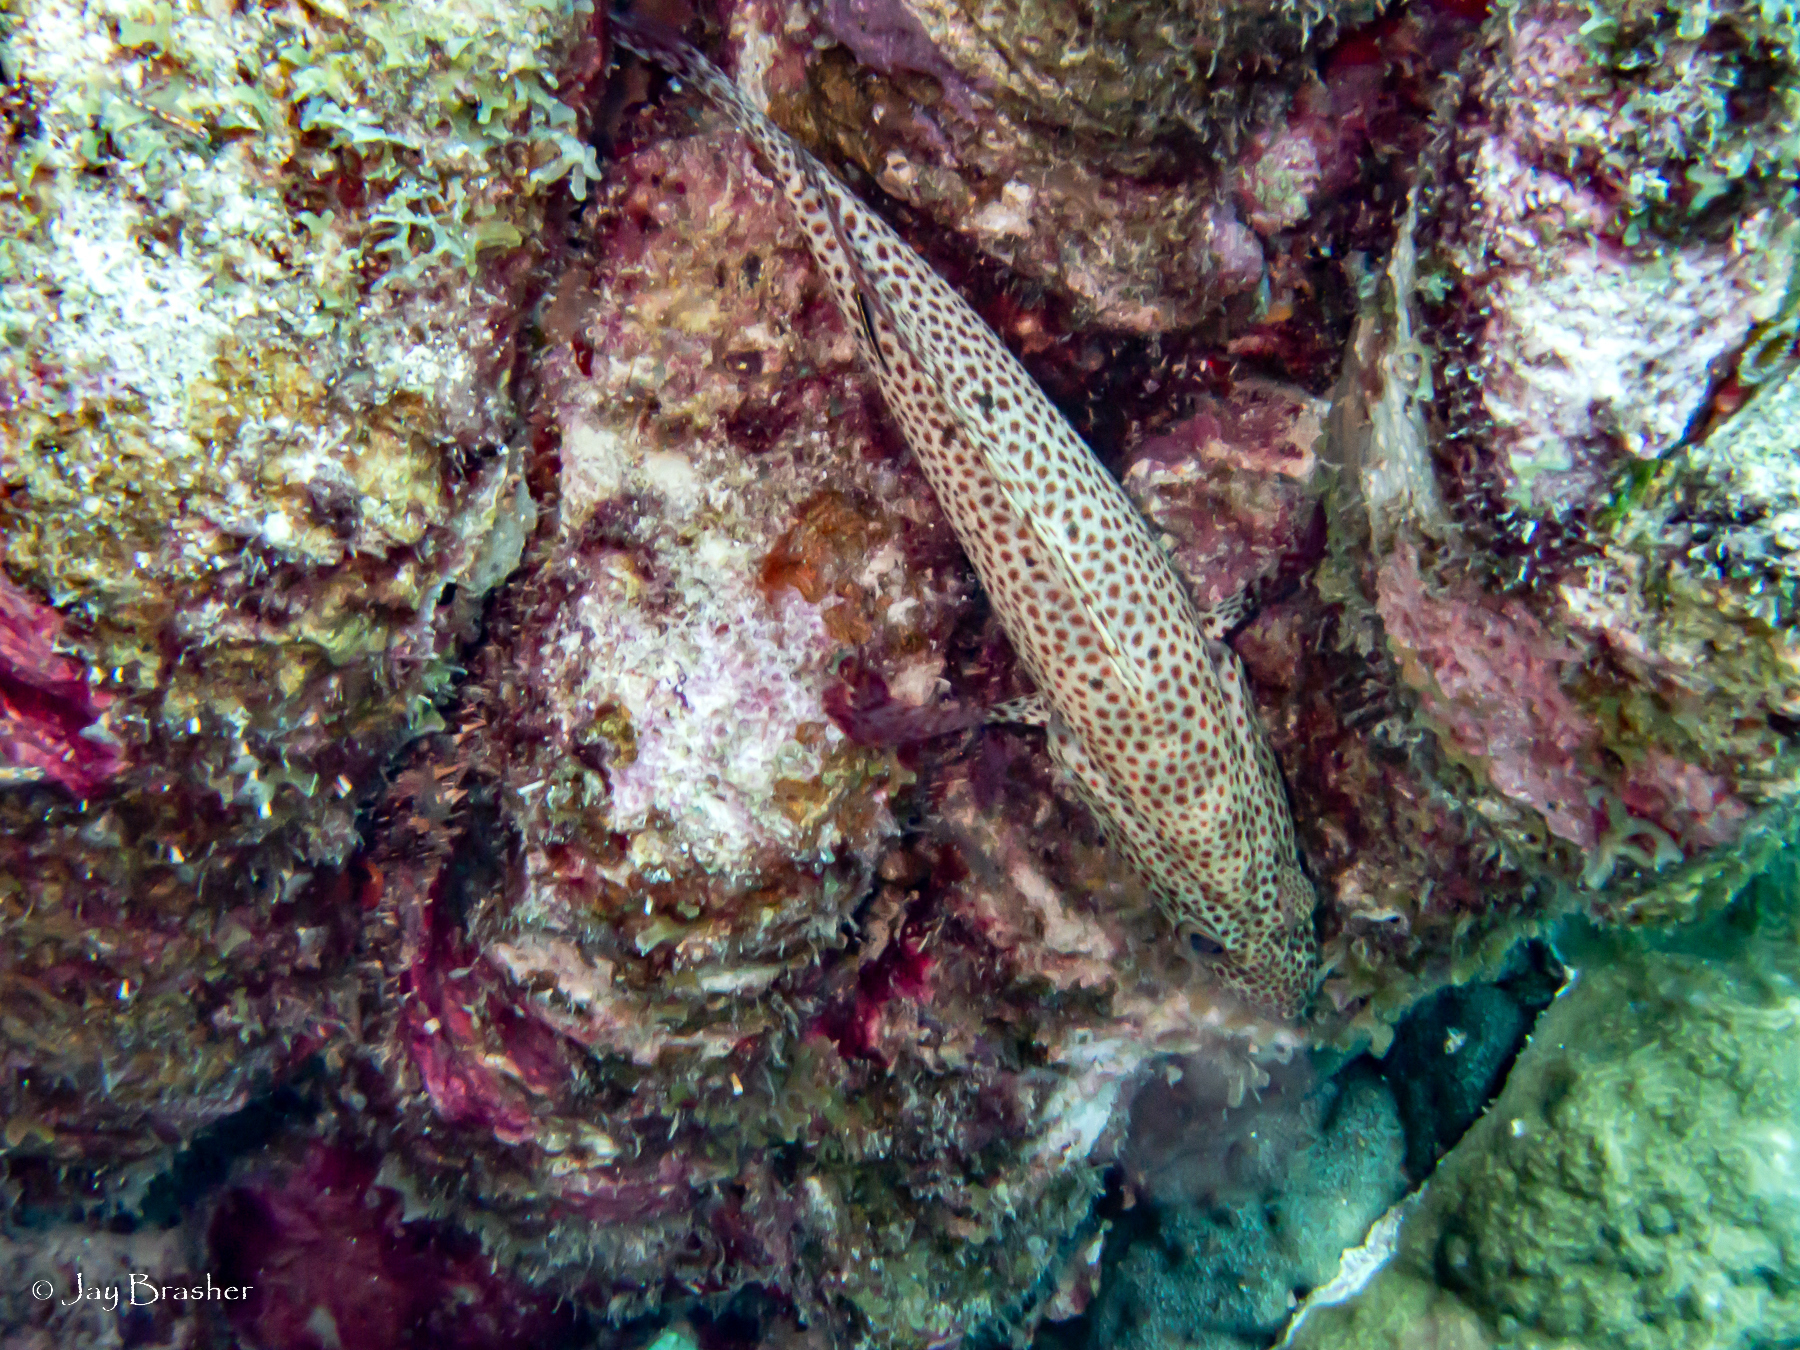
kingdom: Animalia
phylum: Chordata
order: Perciformes
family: Serranidae
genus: Cephalopholis
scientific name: Cephalopholis cruentata
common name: Graysby
